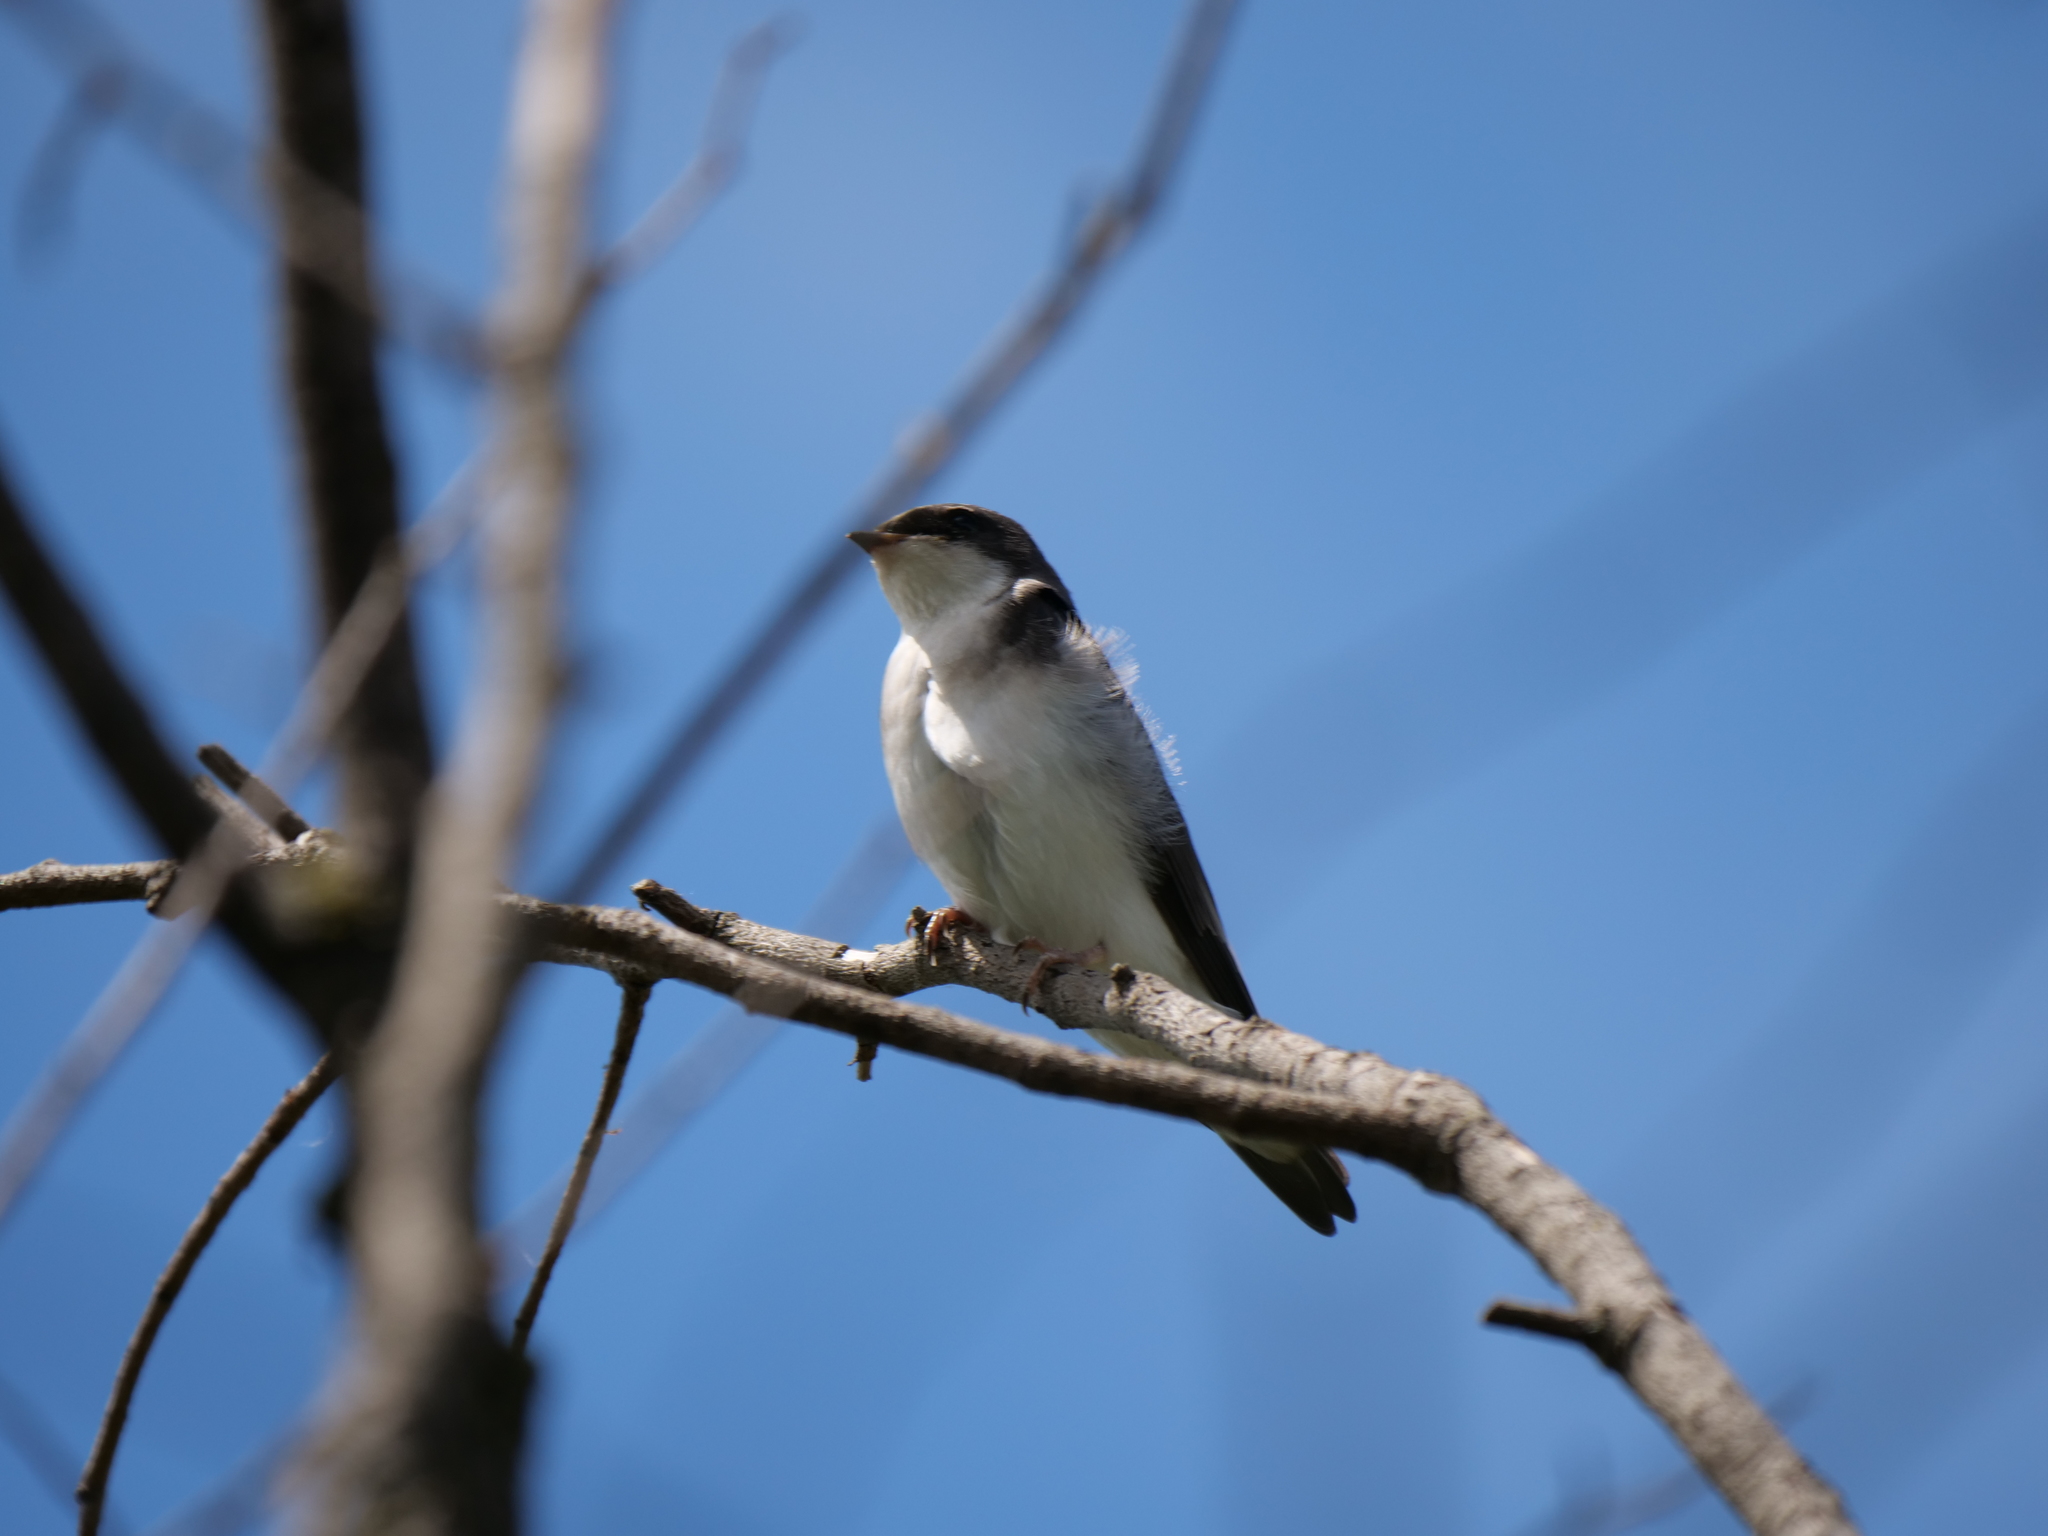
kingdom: Animalia
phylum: Chordata
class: Aves
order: Passeriformes
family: Hirundinidae
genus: Tachycineta
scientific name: Tachycineta bicolor
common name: Tree swallow
